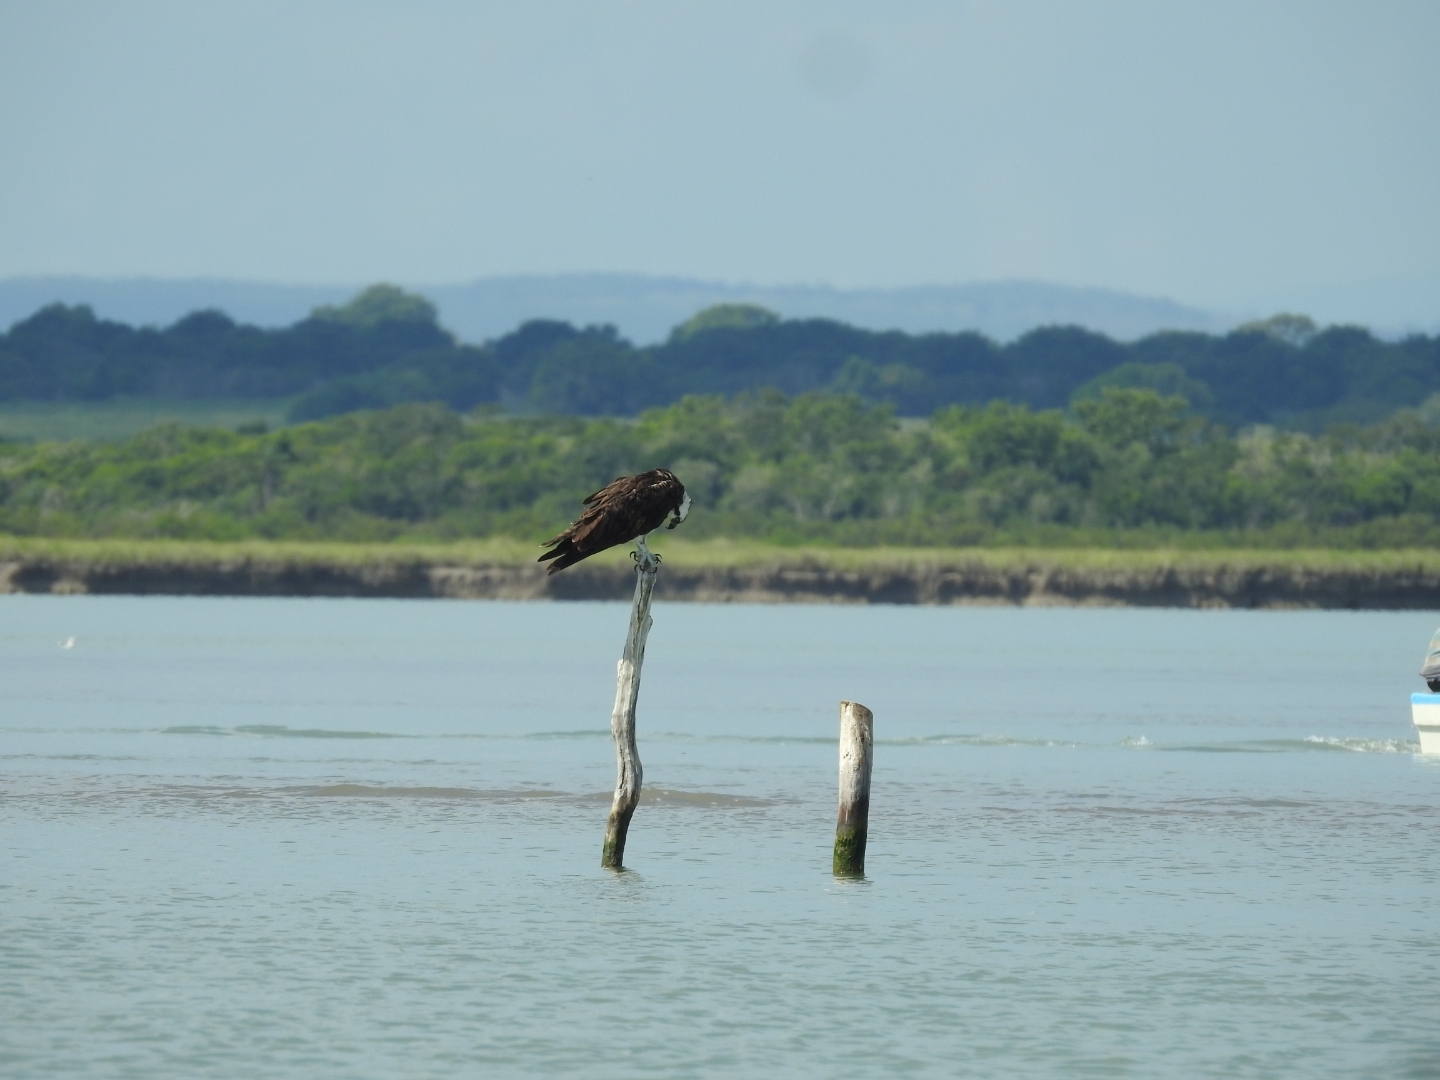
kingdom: Animalia
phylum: Chordata
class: Aves
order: Accipitriformes
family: Pandionidae
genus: Pandion
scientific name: Pandion haliaetus
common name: Osprey
